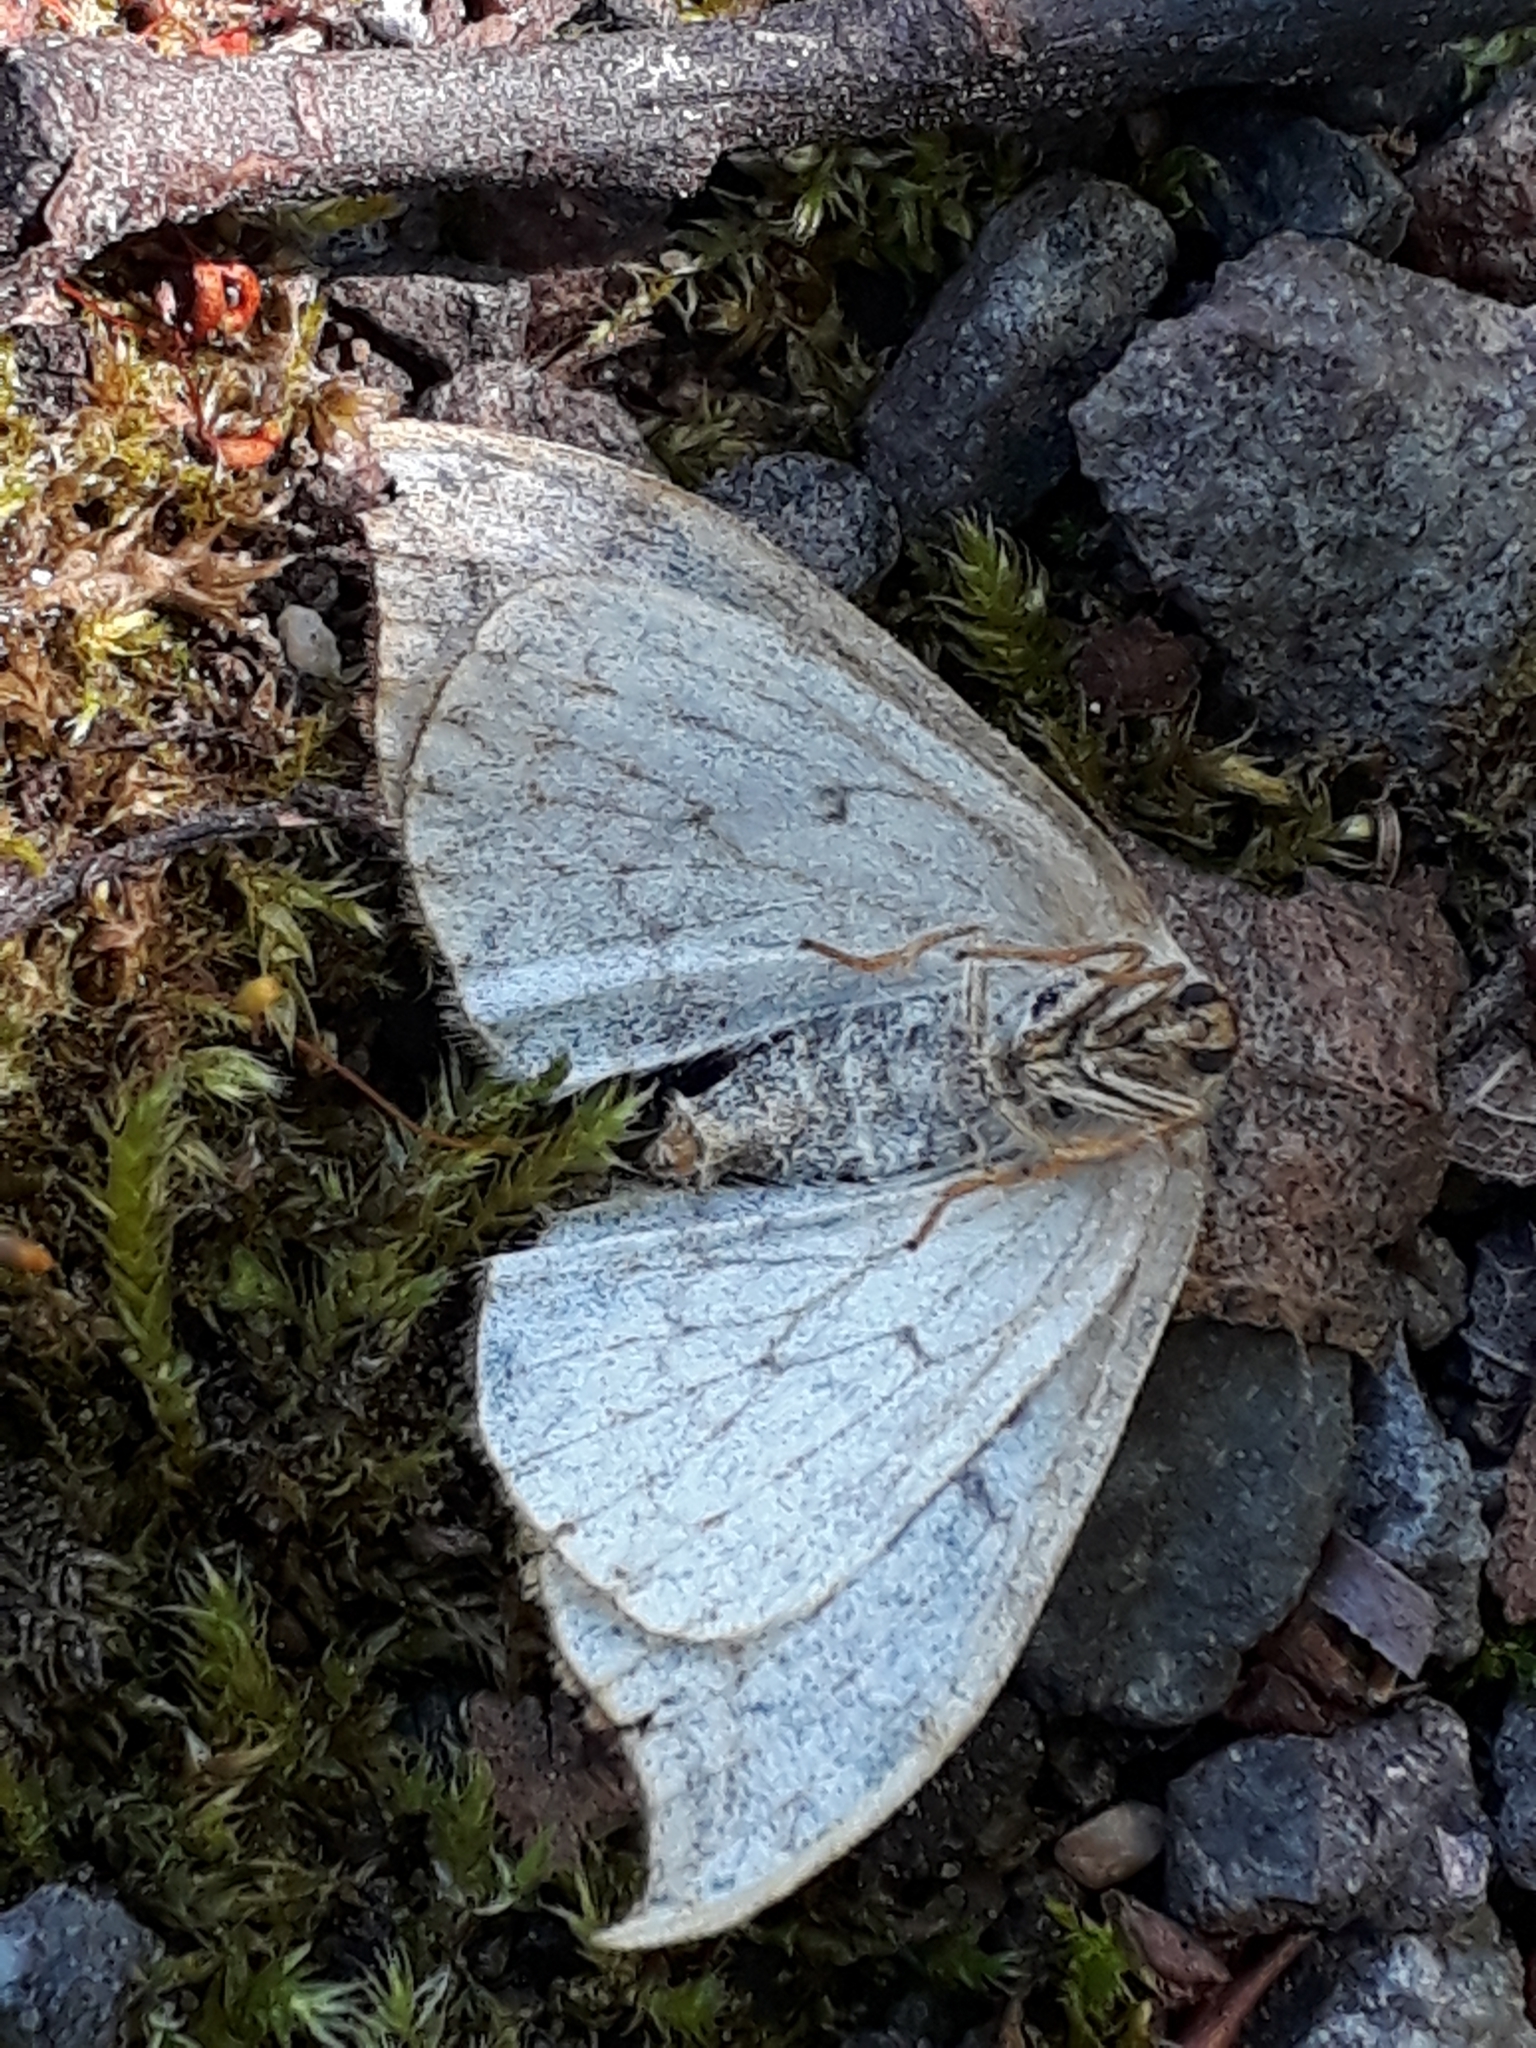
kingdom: Animalia
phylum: Arthropoda
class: Insecta
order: Lepidoptera
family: Drepanidae
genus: Drepana
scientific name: Drepana falcataria
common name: Pebble hook-tip
